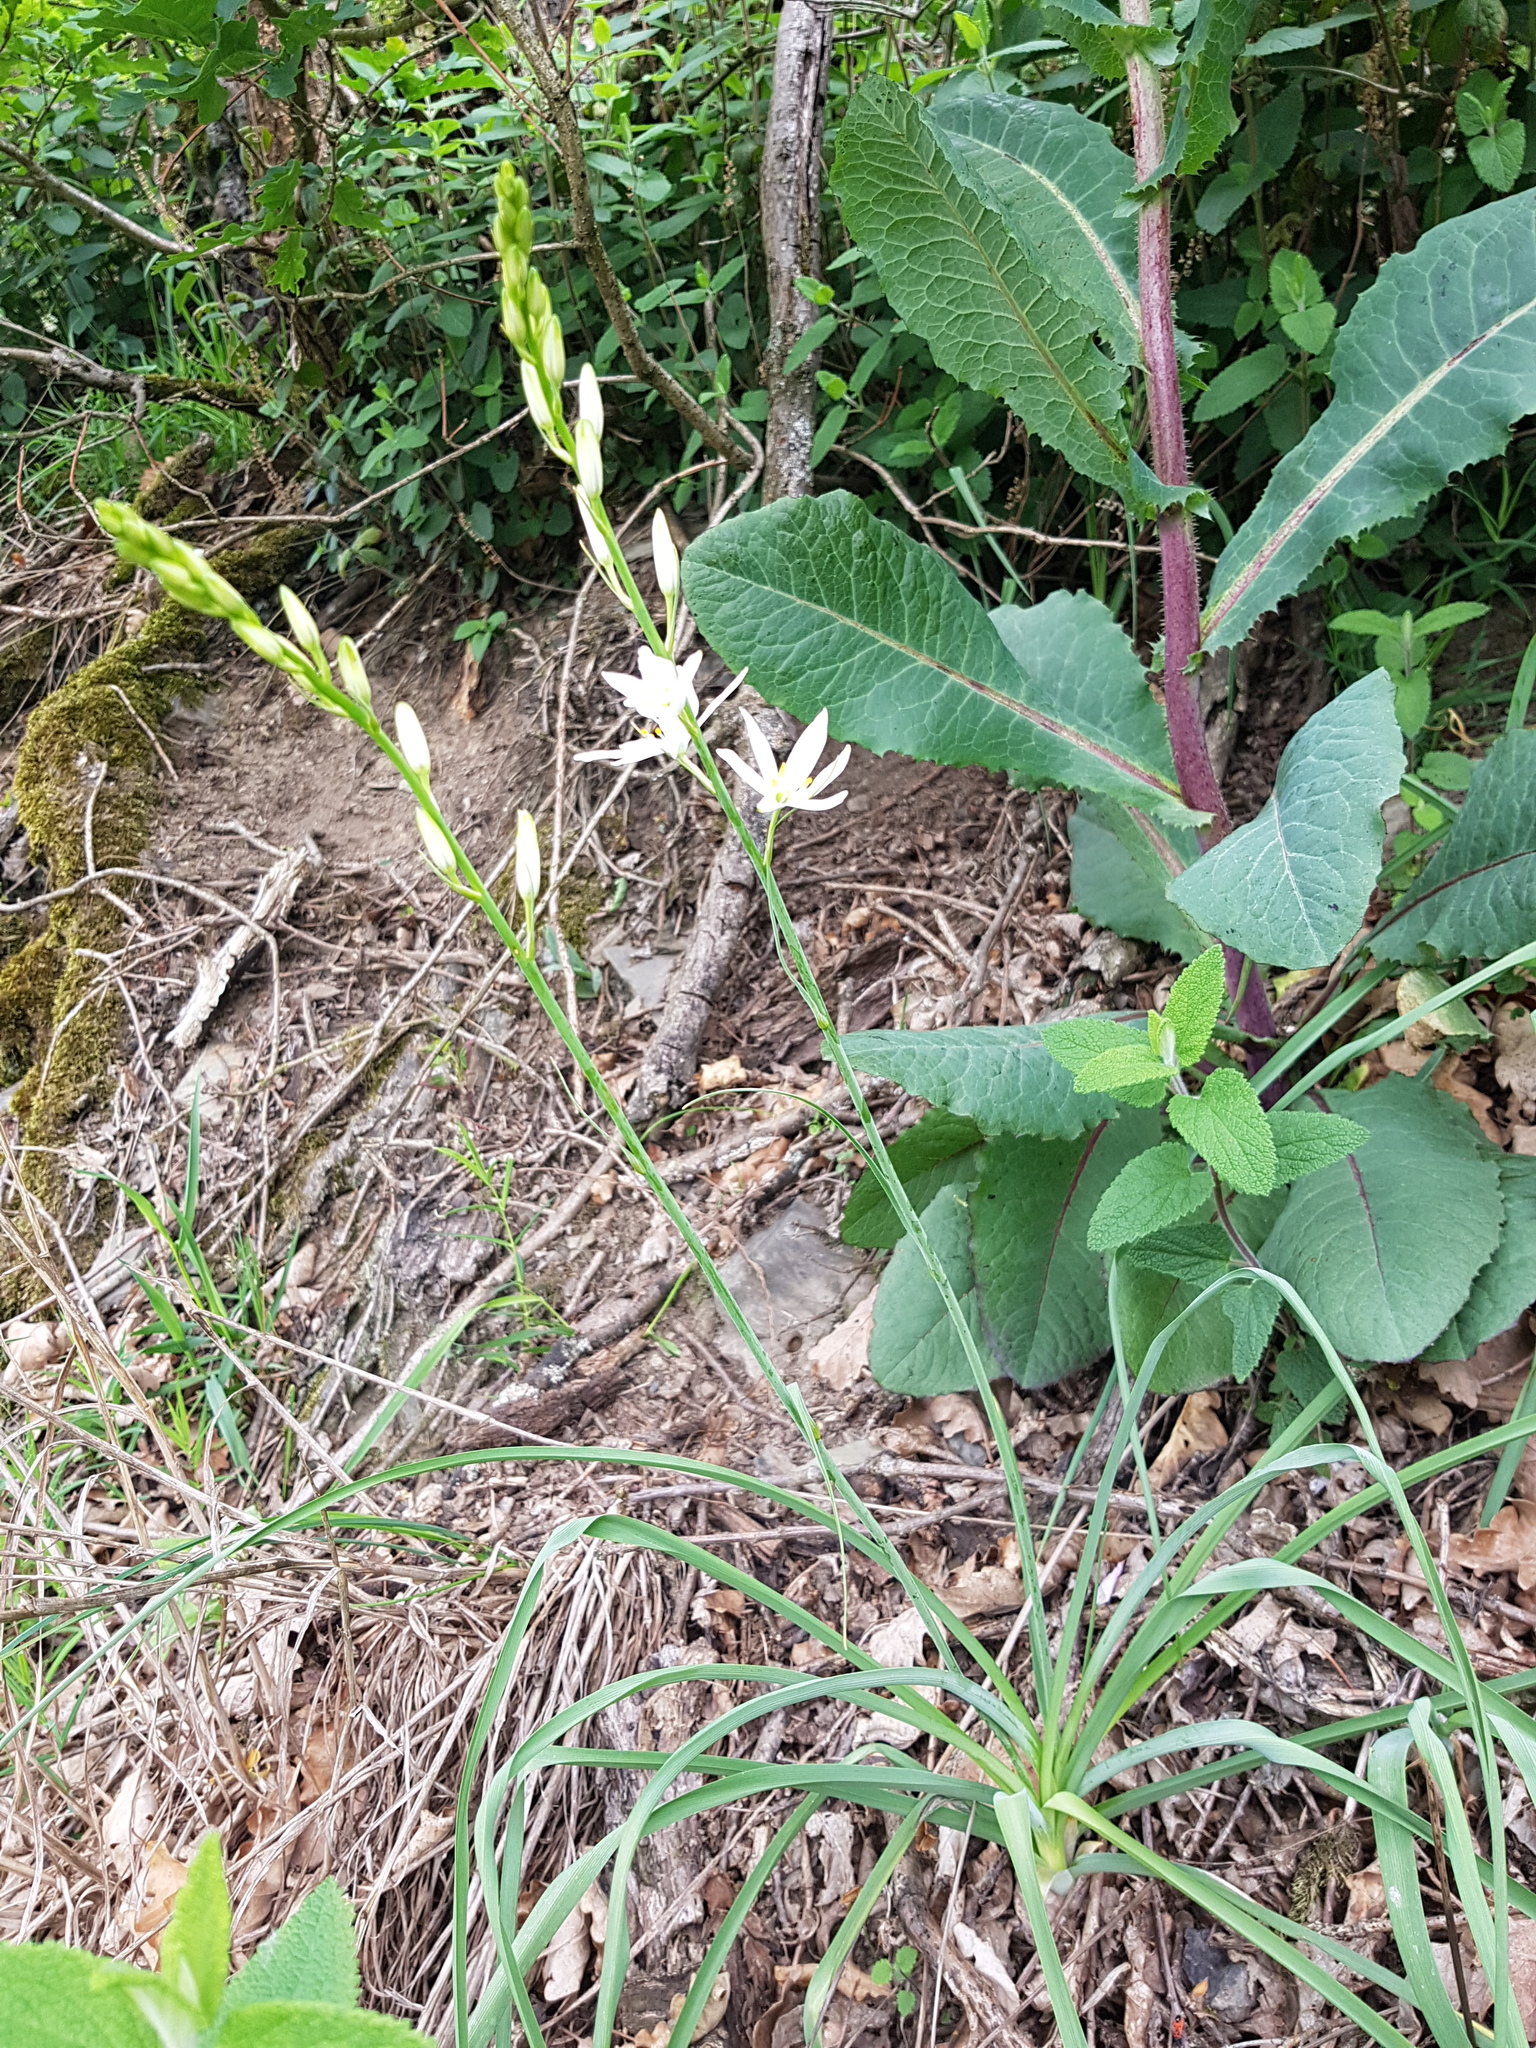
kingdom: Plantae
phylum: Tracheophyta
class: Liliopsida
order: Asparagales
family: Asparagaceae
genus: Anthericum
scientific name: Anthericum liliago
